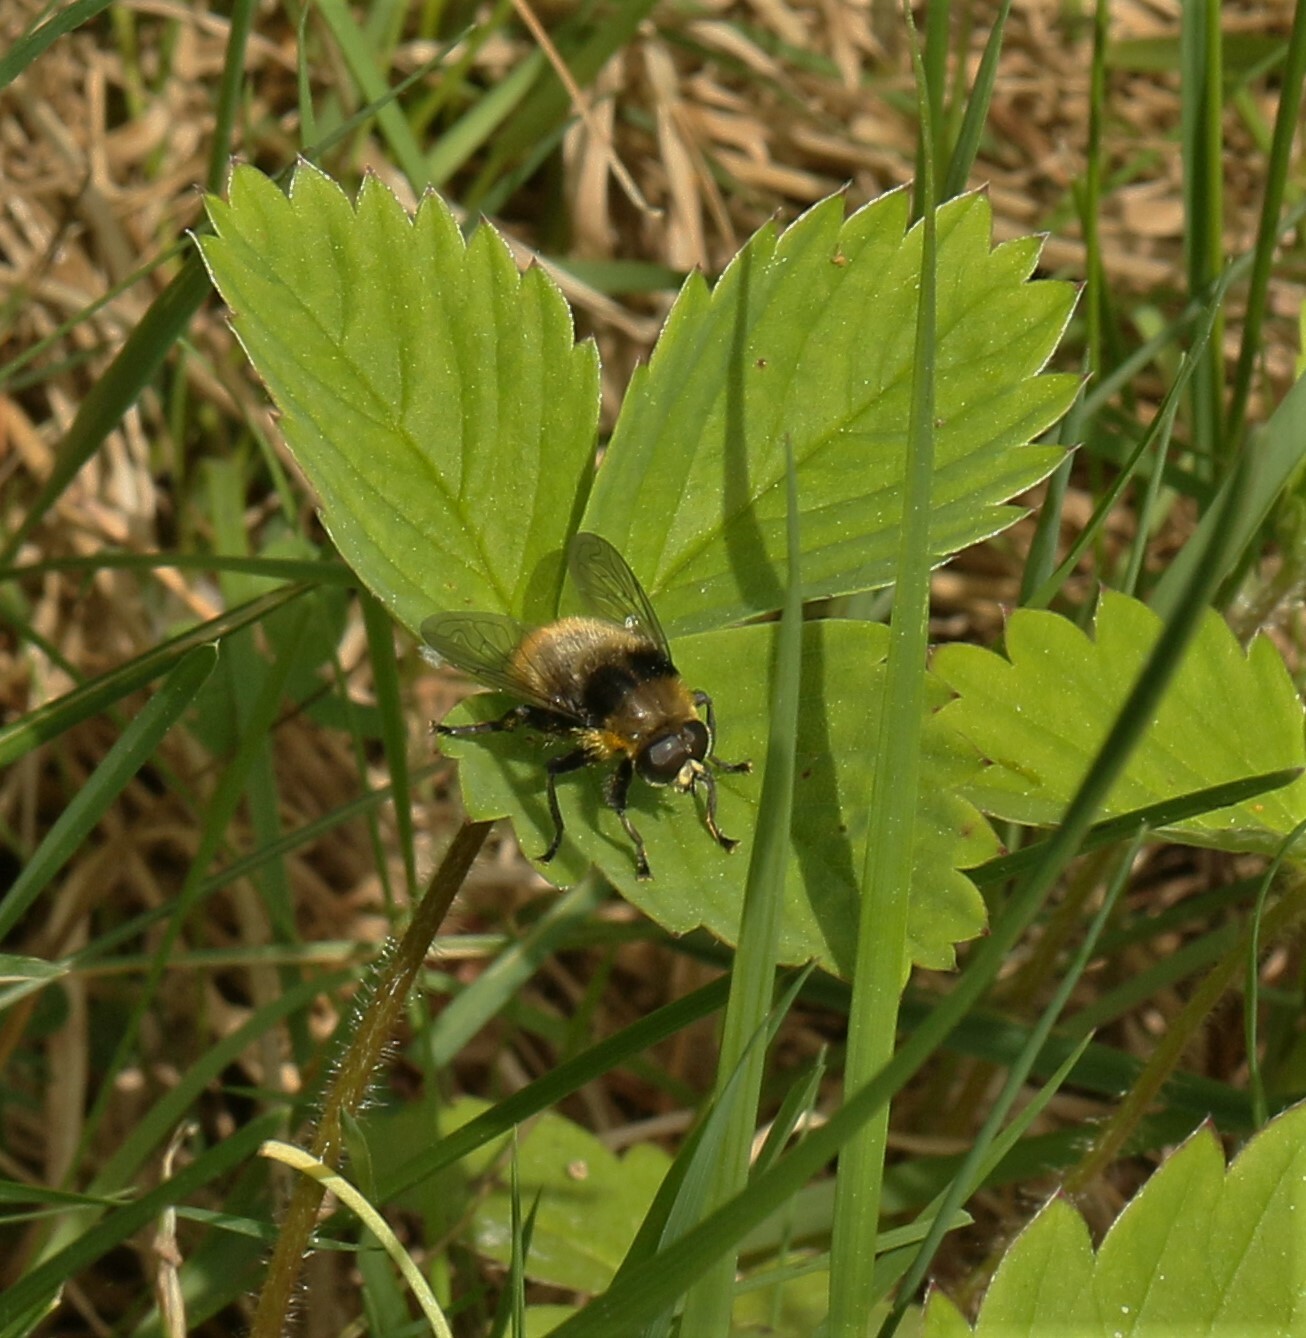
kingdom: Animalia
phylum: Arthropoda
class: Insecta
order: Diptera
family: Syrphidae
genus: Merodon
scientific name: Merodon equestris
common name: Greater bulb-fly
